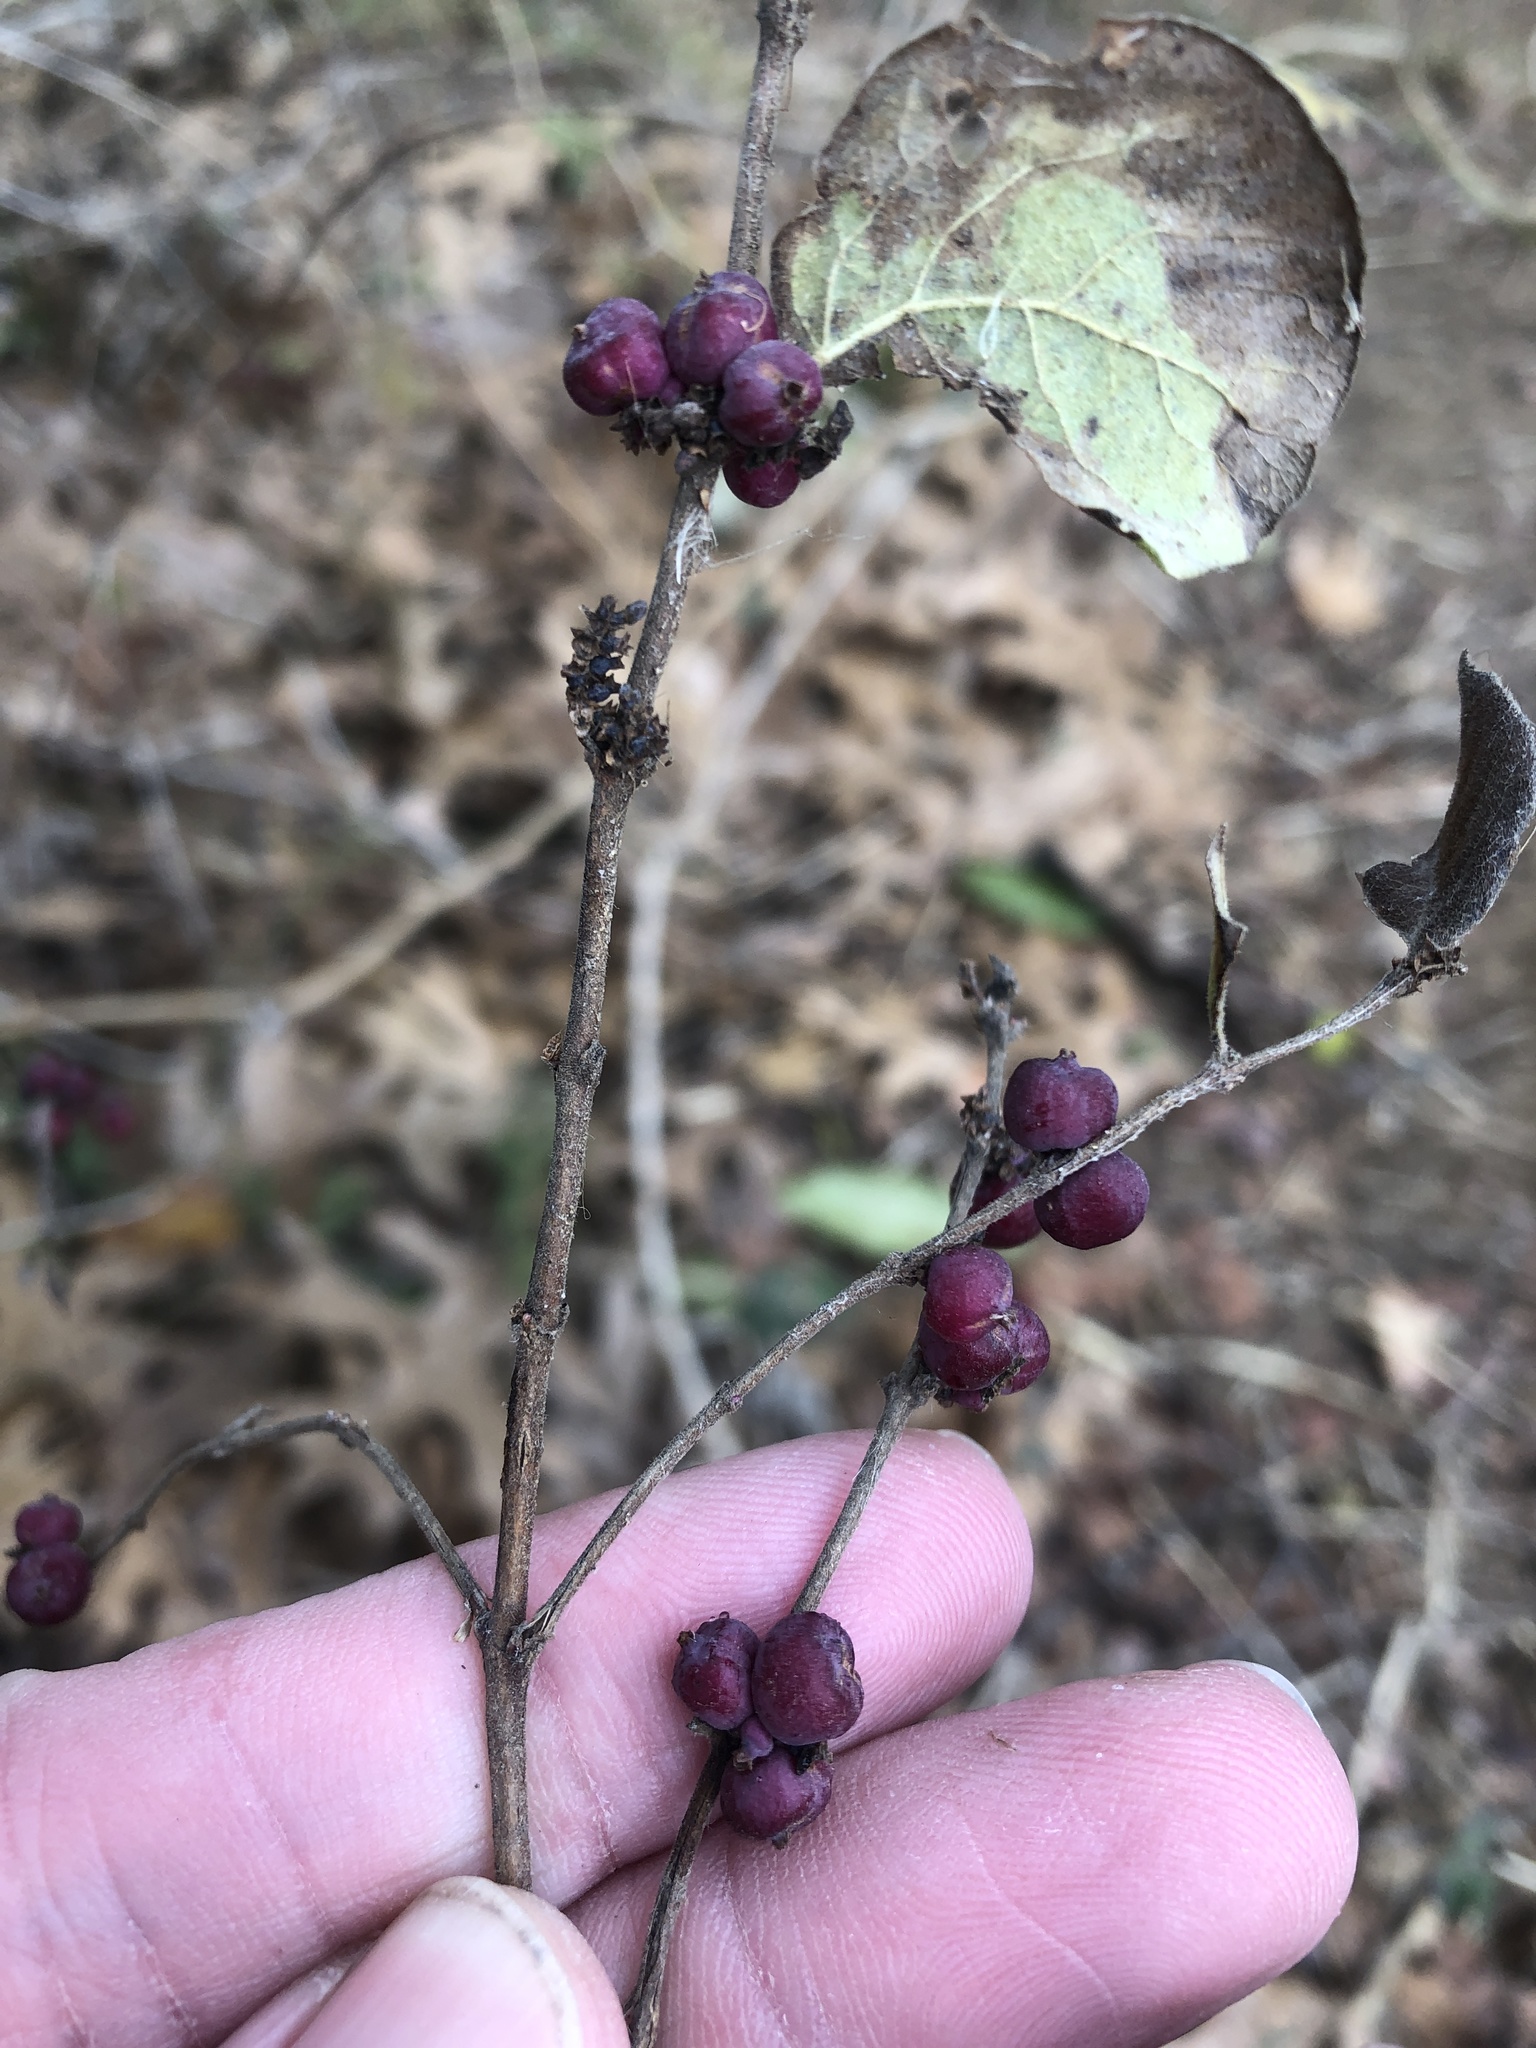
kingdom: Plantae
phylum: Tracheophyta
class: Magnoliopsida
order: Dipsacales
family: Caprifoliaceae
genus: Symphoricarpos
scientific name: Symphoricarpos orbiculatus
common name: Coralberry
